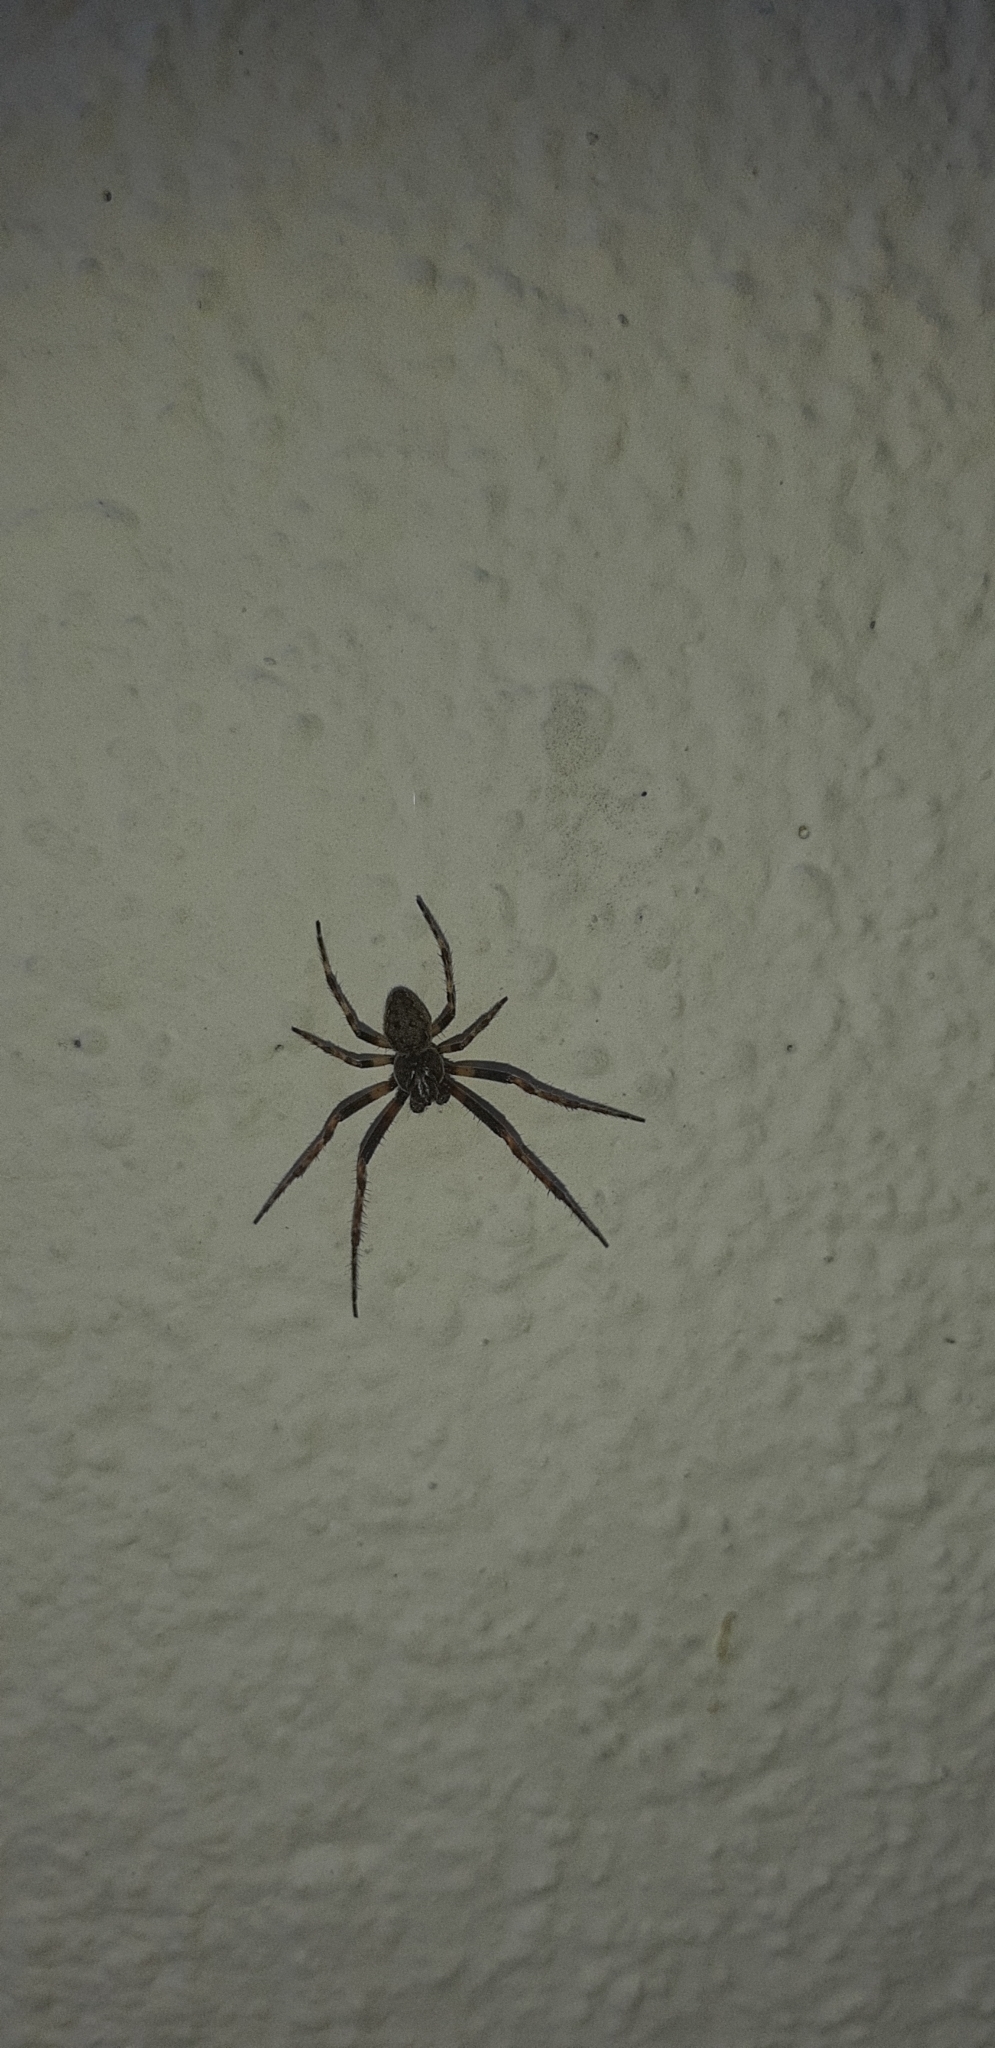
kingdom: Animalia
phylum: Arthropoda
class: Arachnida
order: Araneae
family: Araneidae
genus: Nuctenea
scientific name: Nuctenea umbratica
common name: Toad spider
